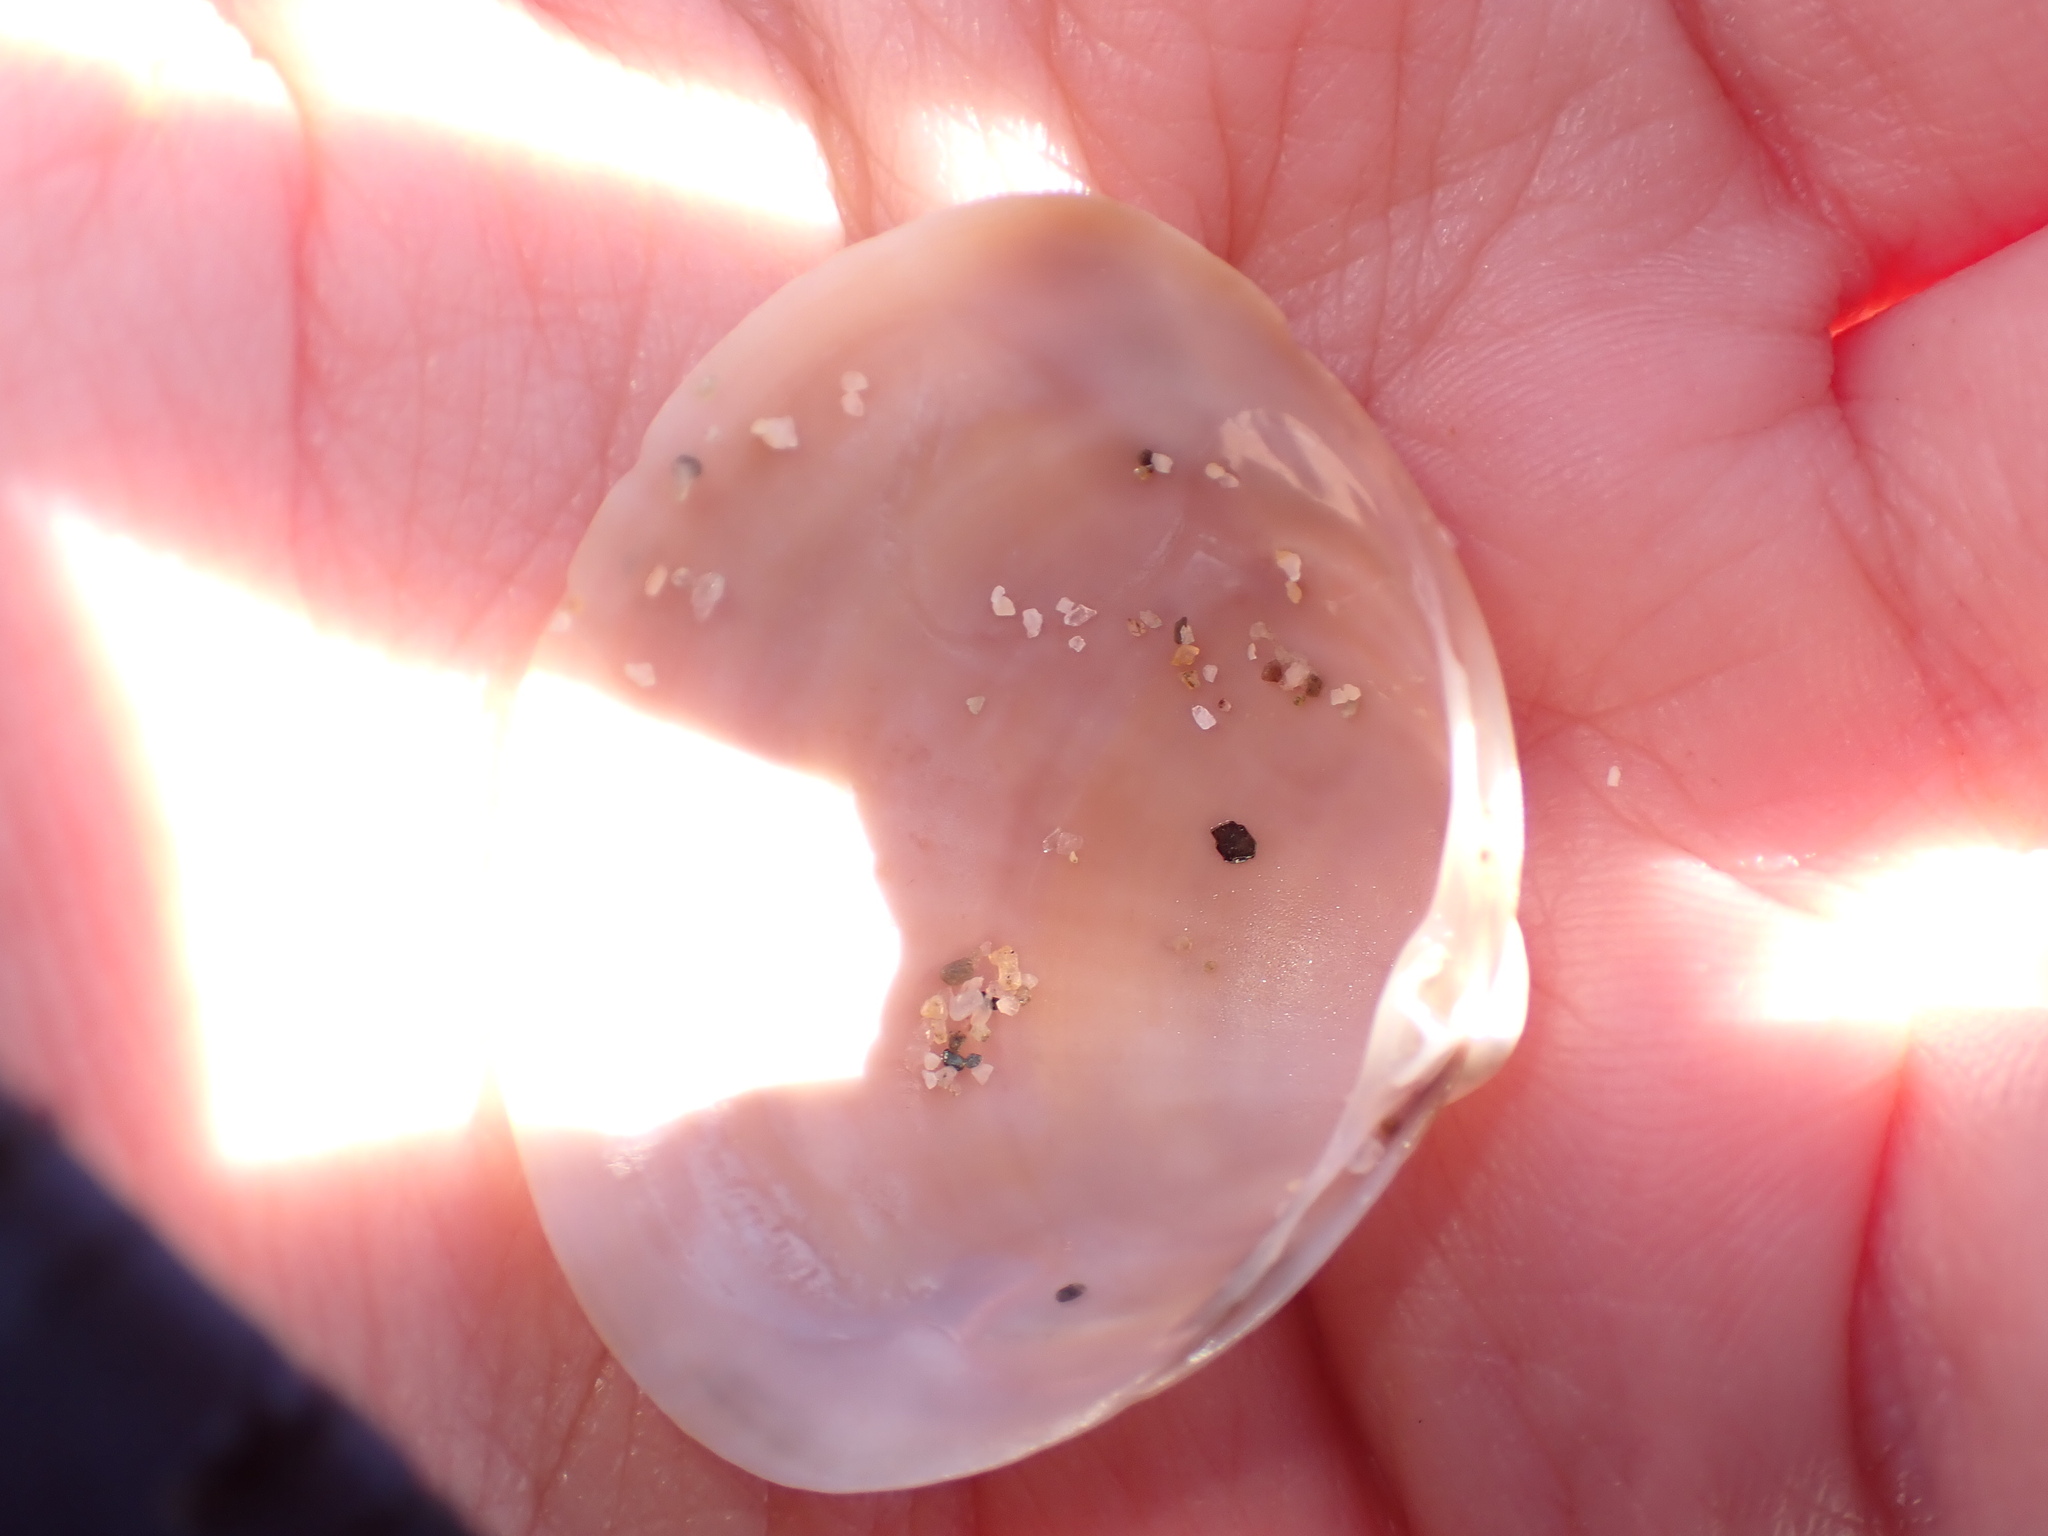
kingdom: Animalia
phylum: Mollusca
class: Bivalvia
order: Venerida
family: Mactridae
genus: Mactra
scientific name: Mactra stultorum
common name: Rayed trough shell
